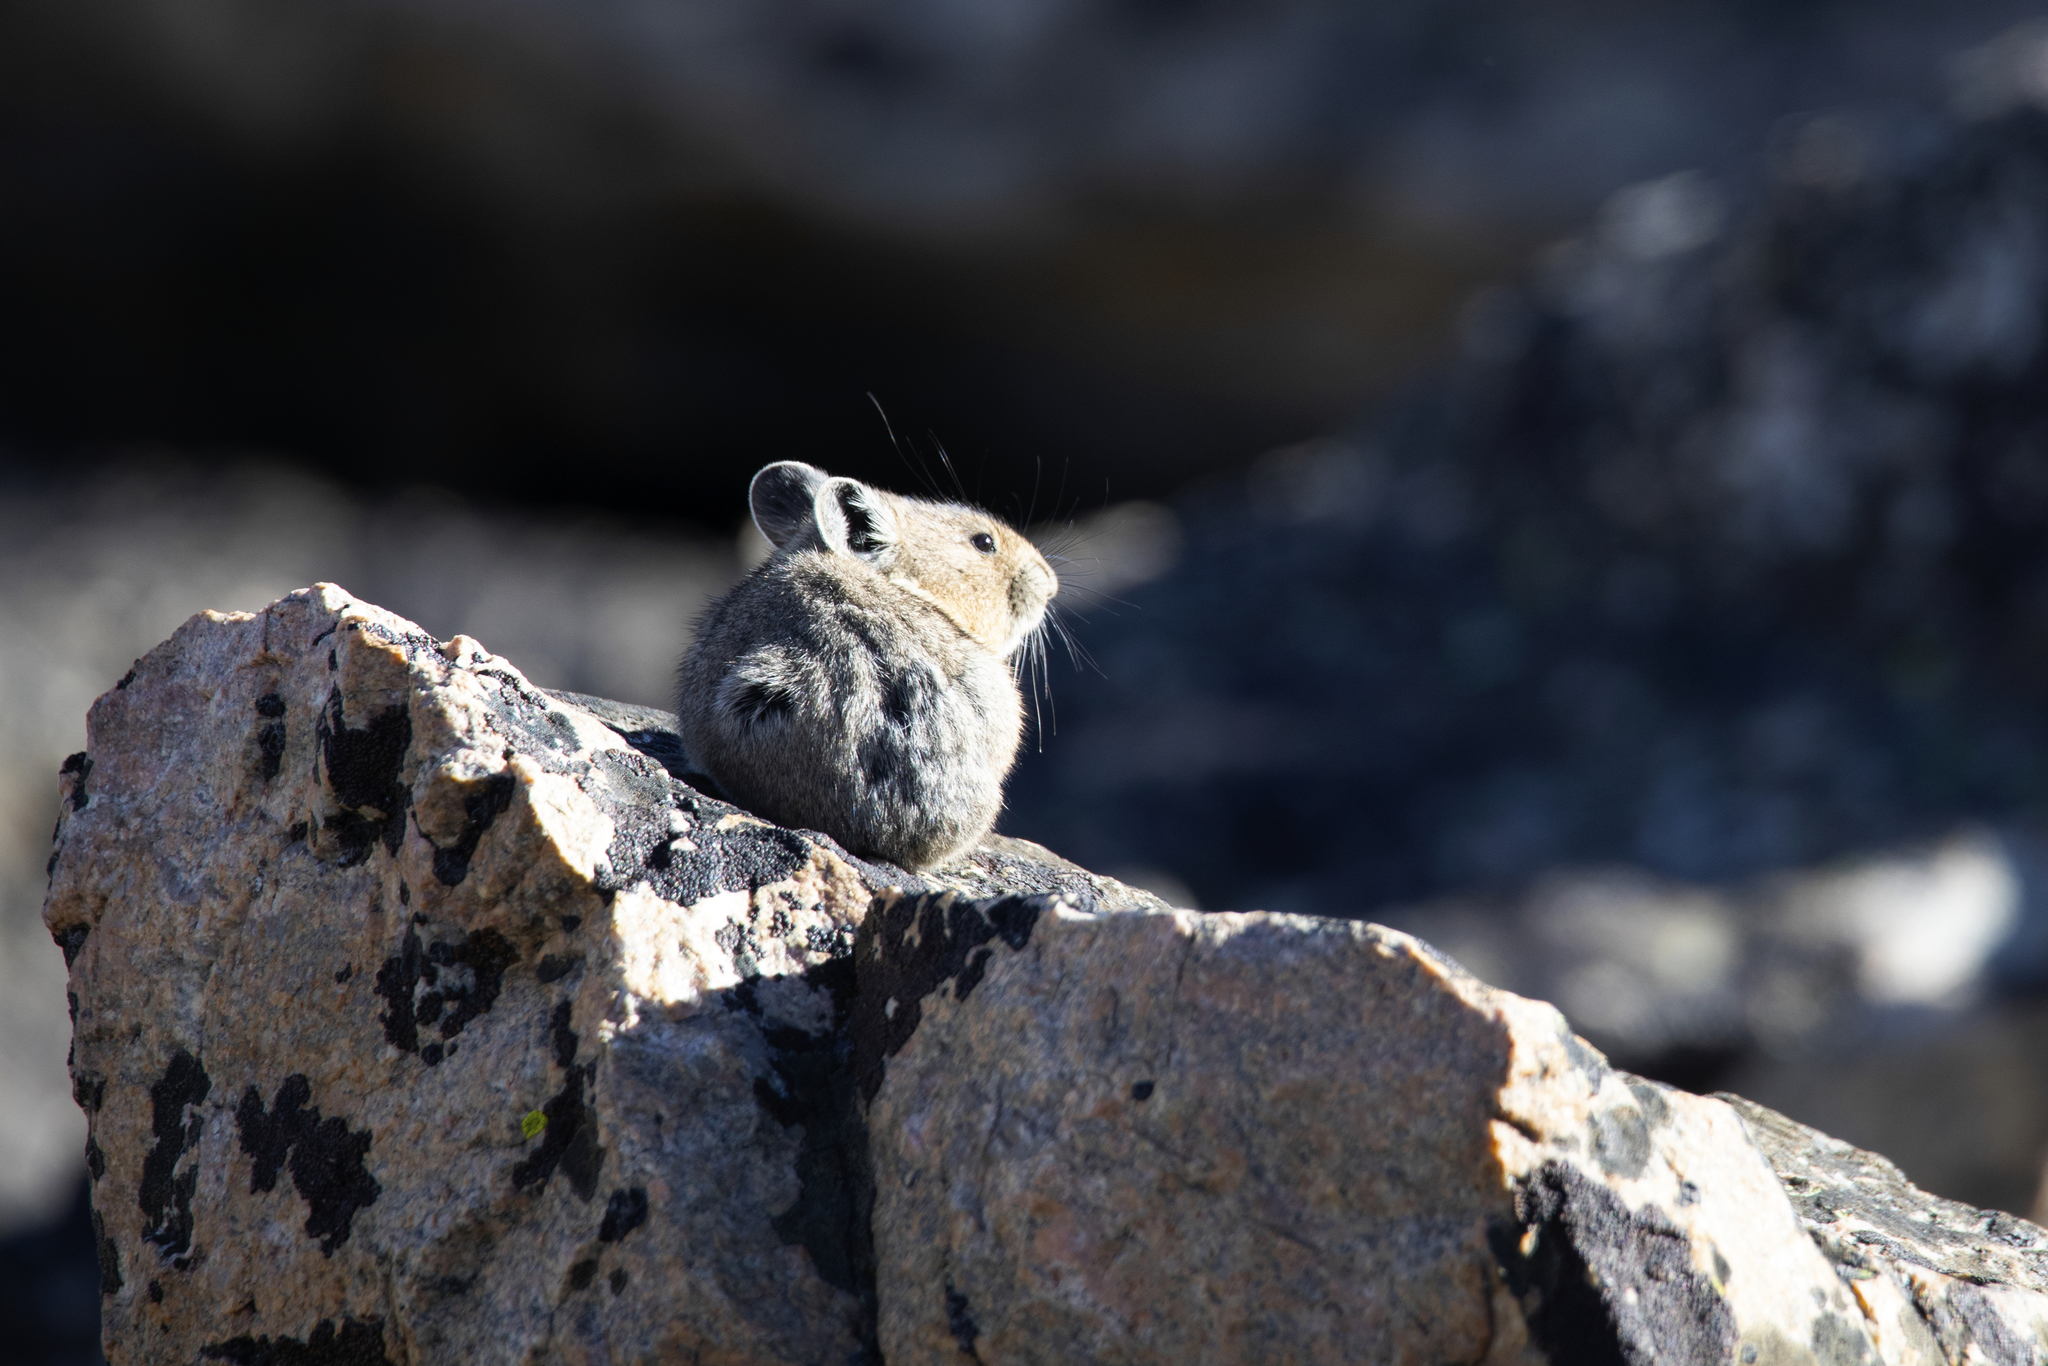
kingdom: Animalia
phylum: Chordata
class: Mammalia
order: Lagomorpha
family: Ochotonidae
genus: Ochotona
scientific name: Ochotona princeps
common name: American pika
